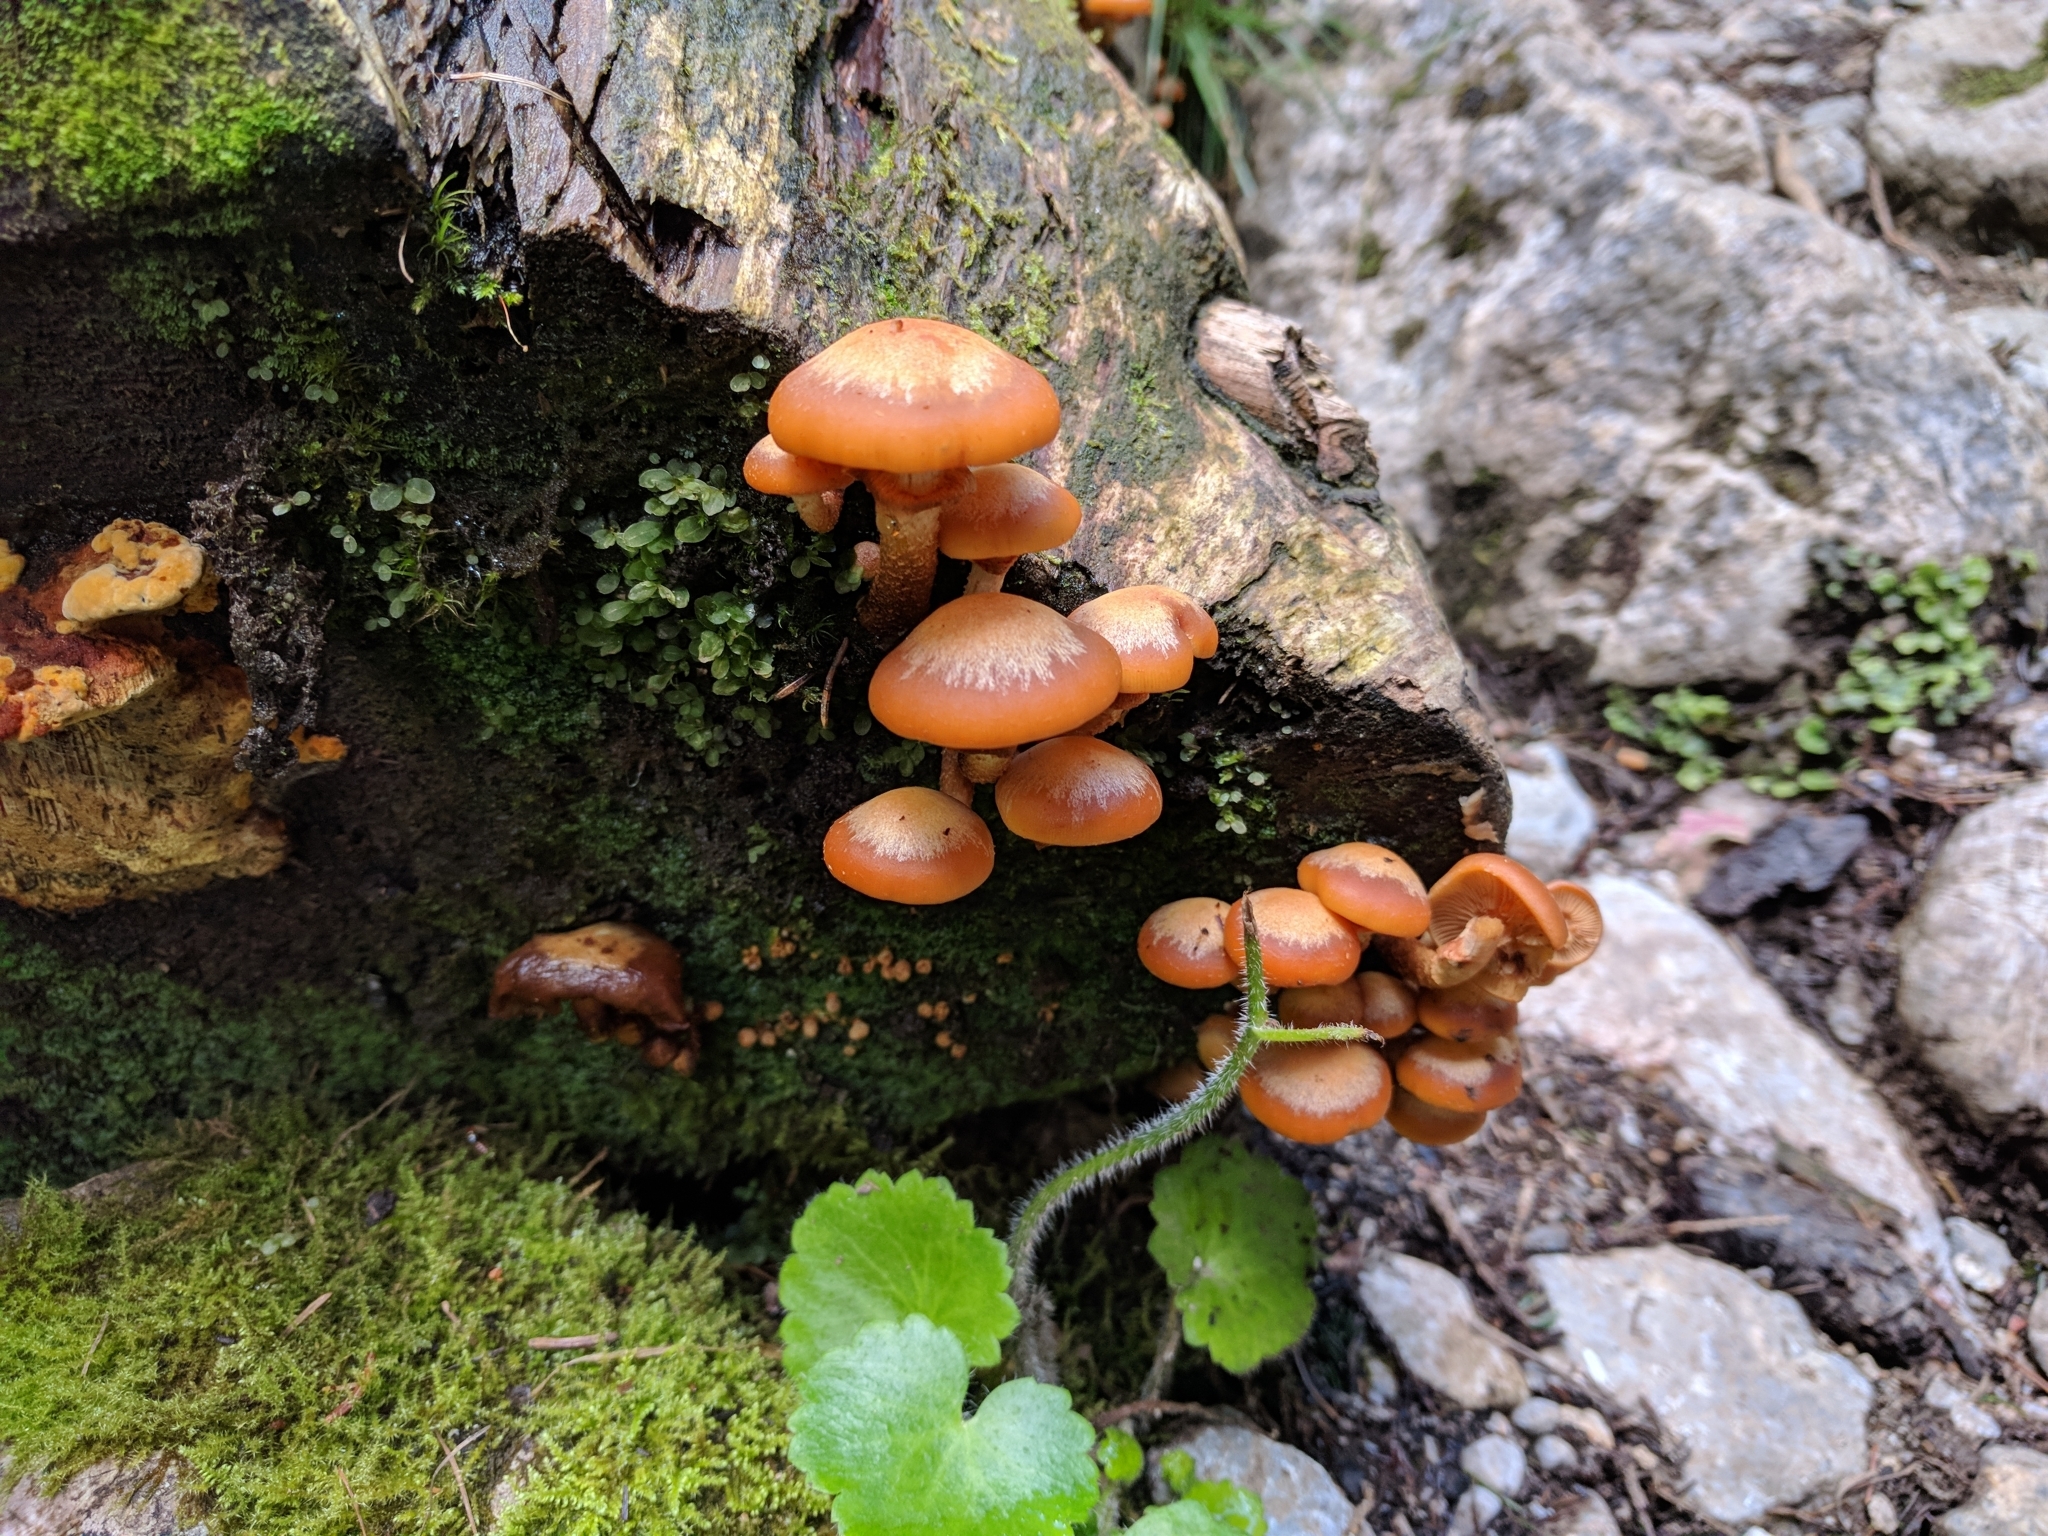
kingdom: Fungi
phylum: Basidiomycota
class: Agaricomycetes
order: Agaricales
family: Strophariaceae
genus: Kuehneromyces
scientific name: Kuehneromyces mutabilis
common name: Sheathed woodtuft
